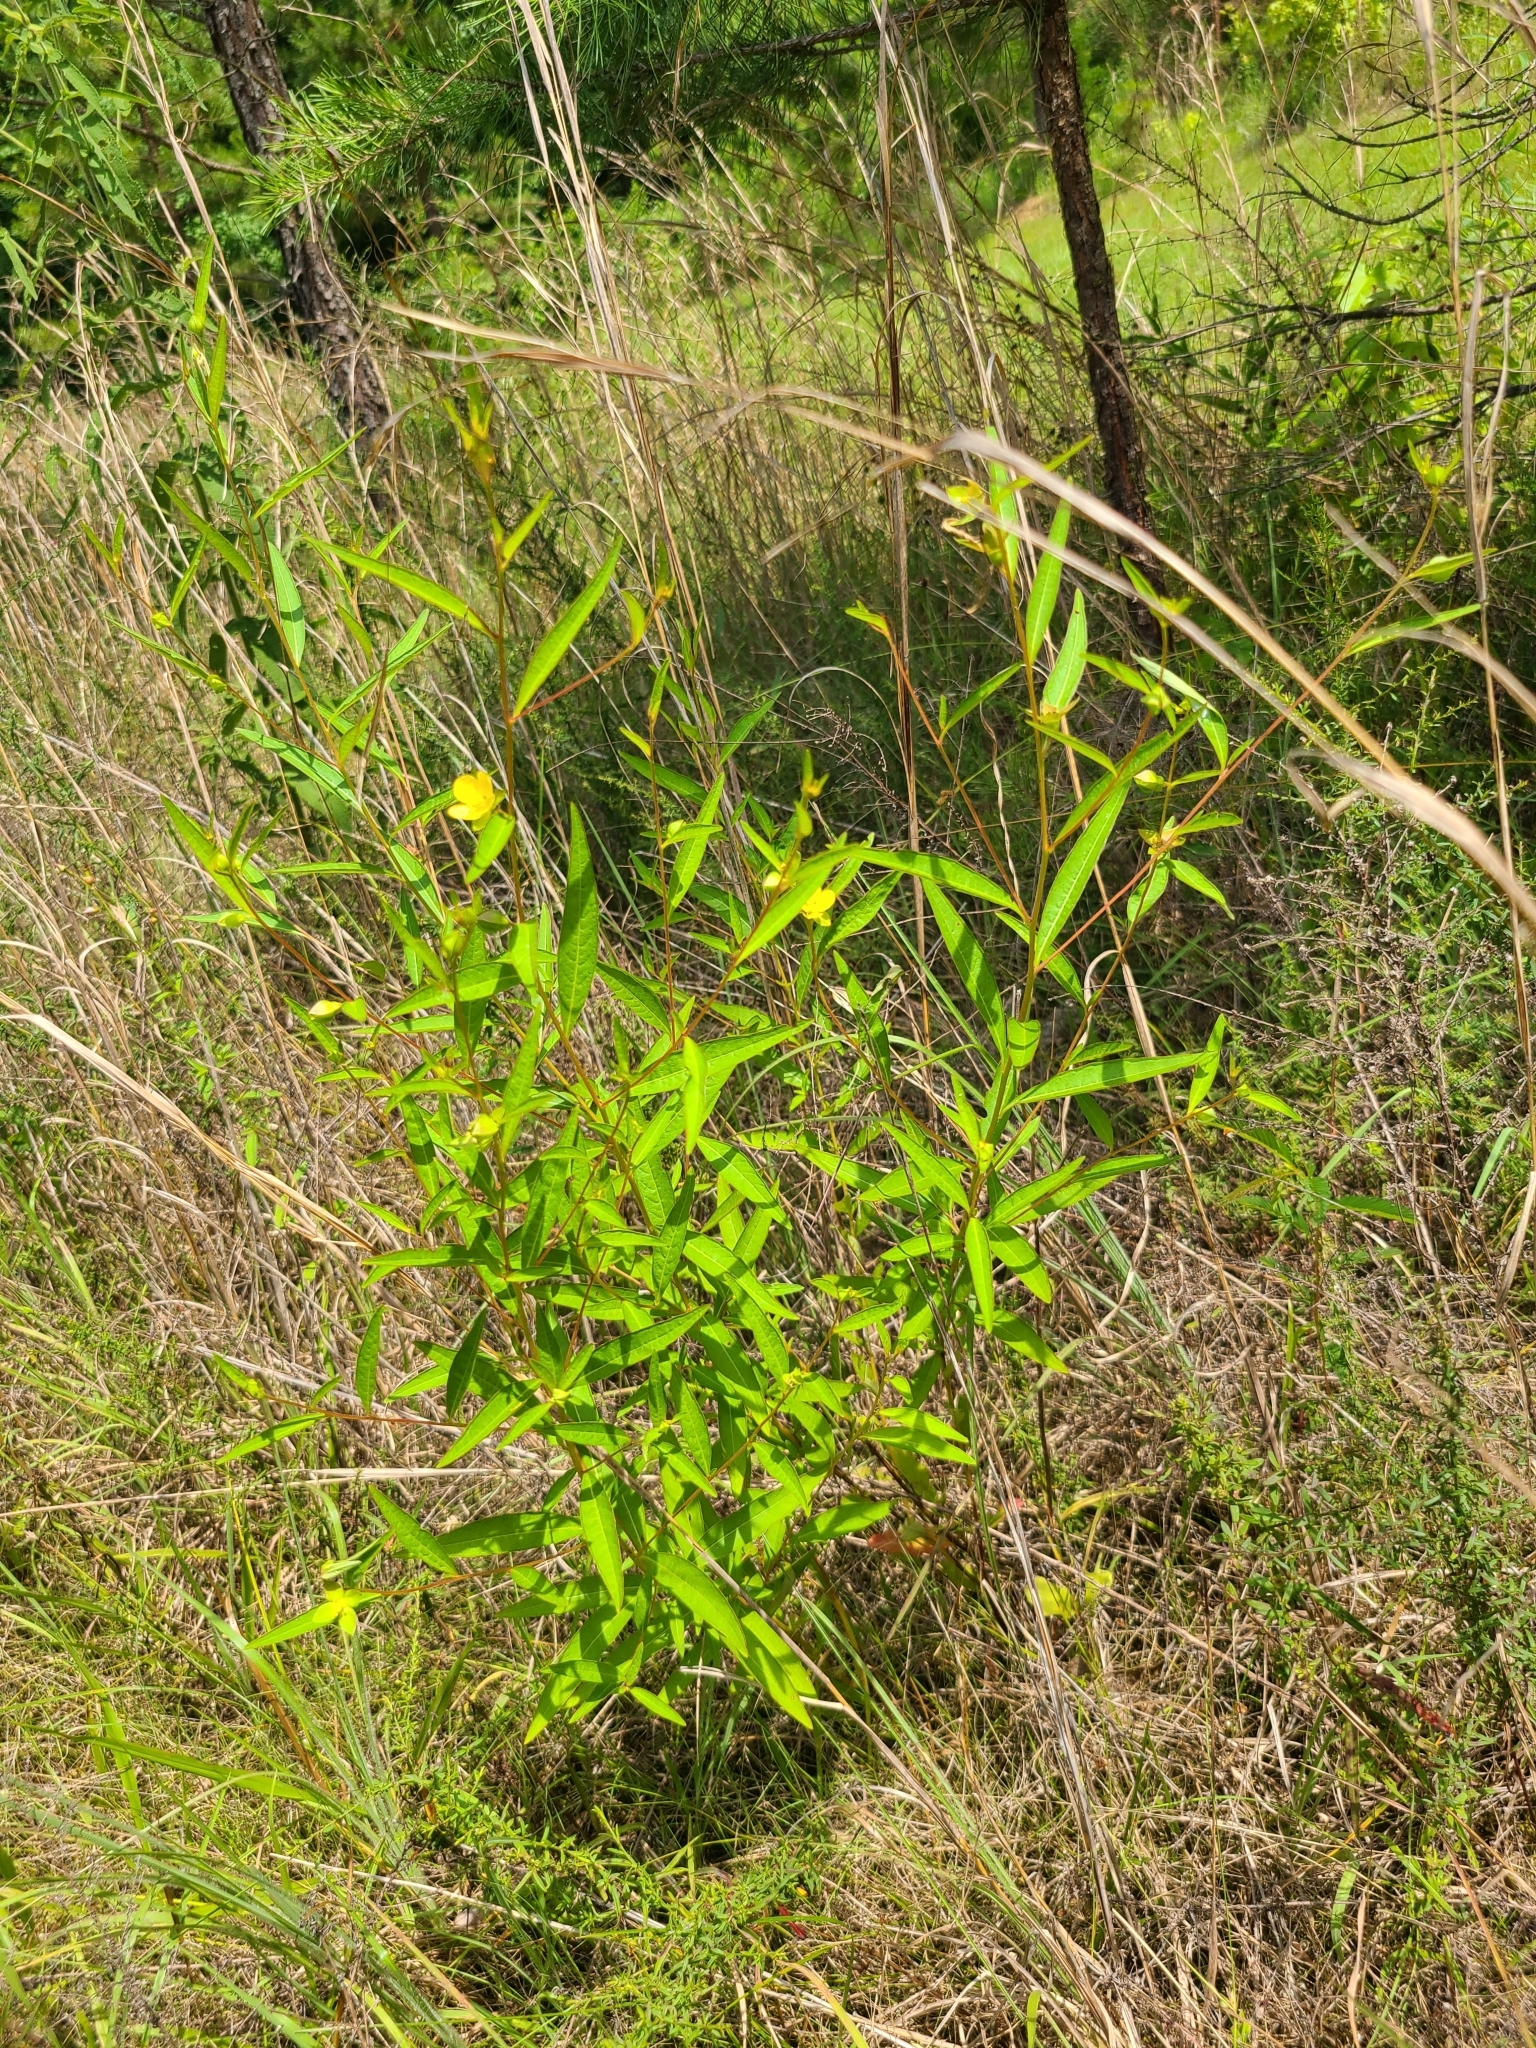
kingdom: Plantae
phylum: Tracheophyta
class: Magnoliopsida
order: Myrtales
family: Onagraceae
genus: Ludwigia
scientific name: Ludwigia alternifolia
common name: Rattlebox
